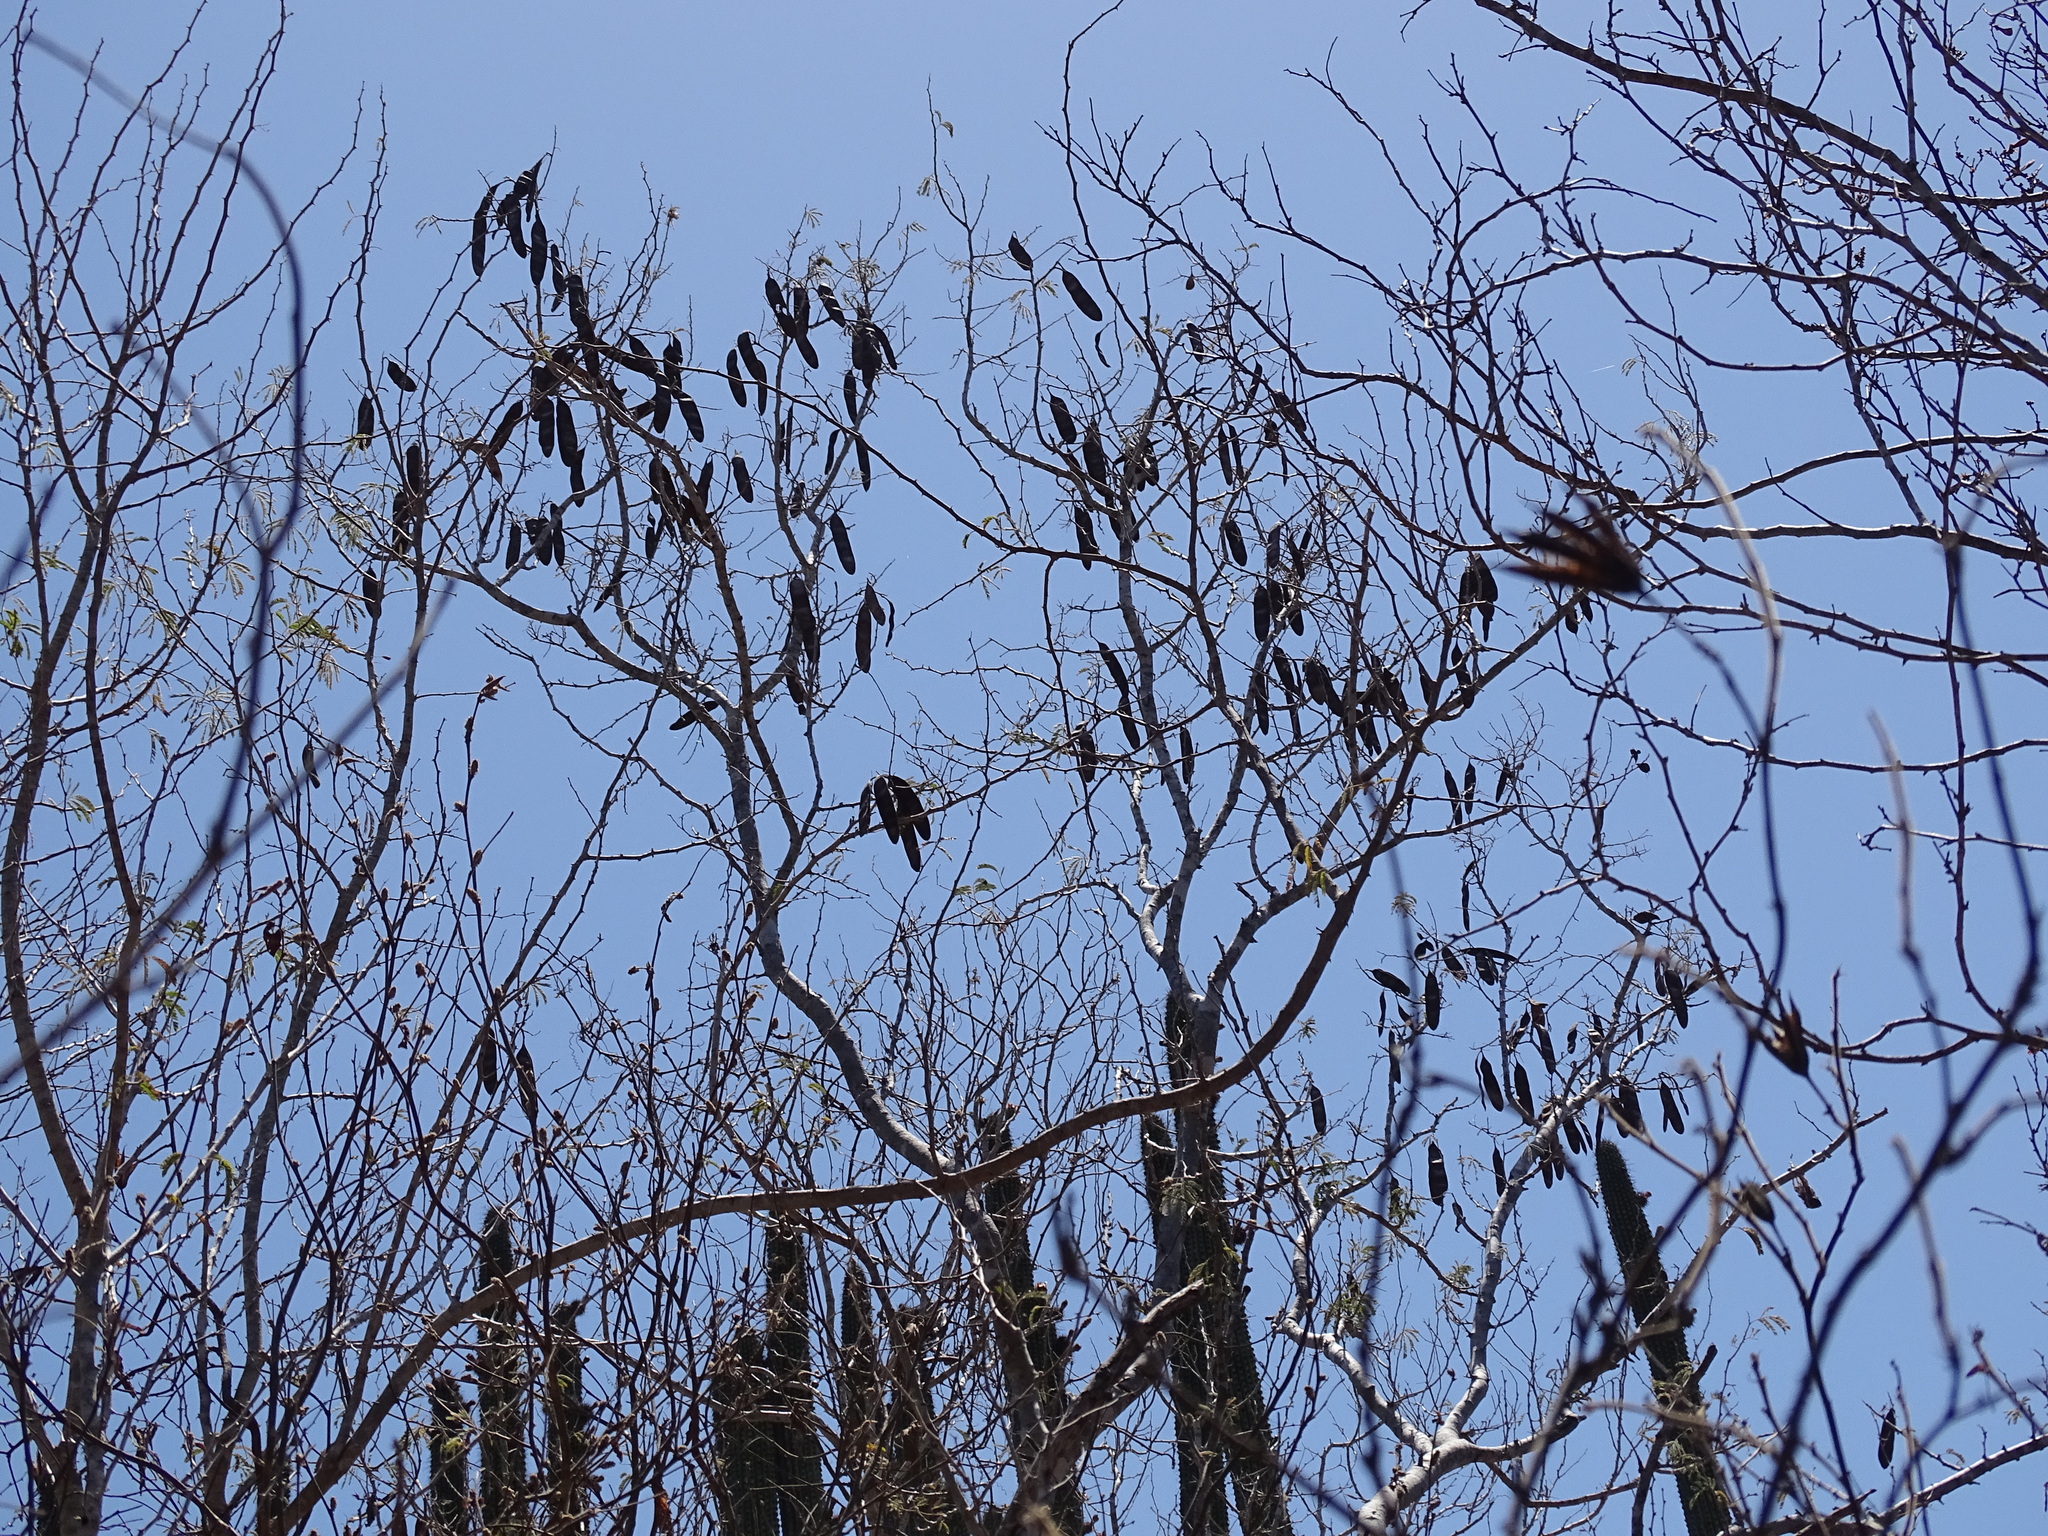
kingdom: Plantae
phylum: Tracheophyta
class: Magnoliopsida
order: Fabales
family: Fabaceae
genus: Havardia
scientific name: Havardia sonorae
